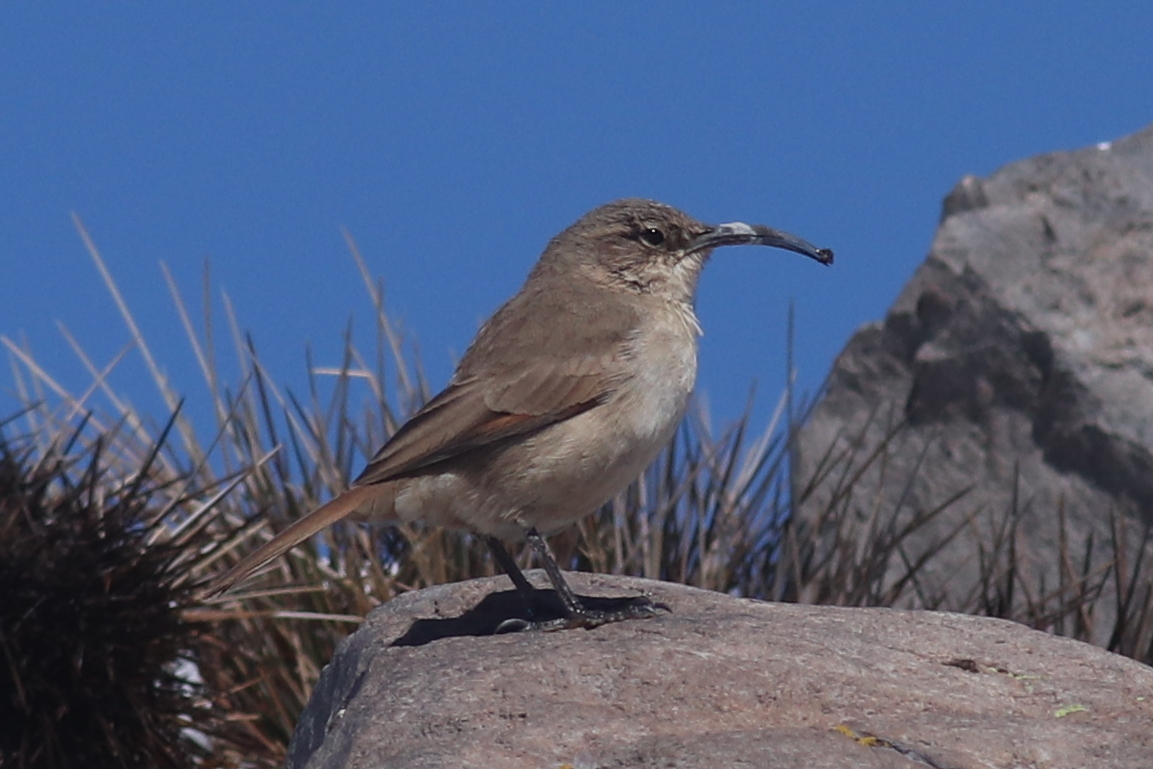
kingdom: Animalia
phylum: Chordata
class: Aves
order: Passeriformes
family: Furnariidae
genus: Upucerthia
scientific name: Upucerthia validirostris
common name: Buff-breasted earthcreeper
